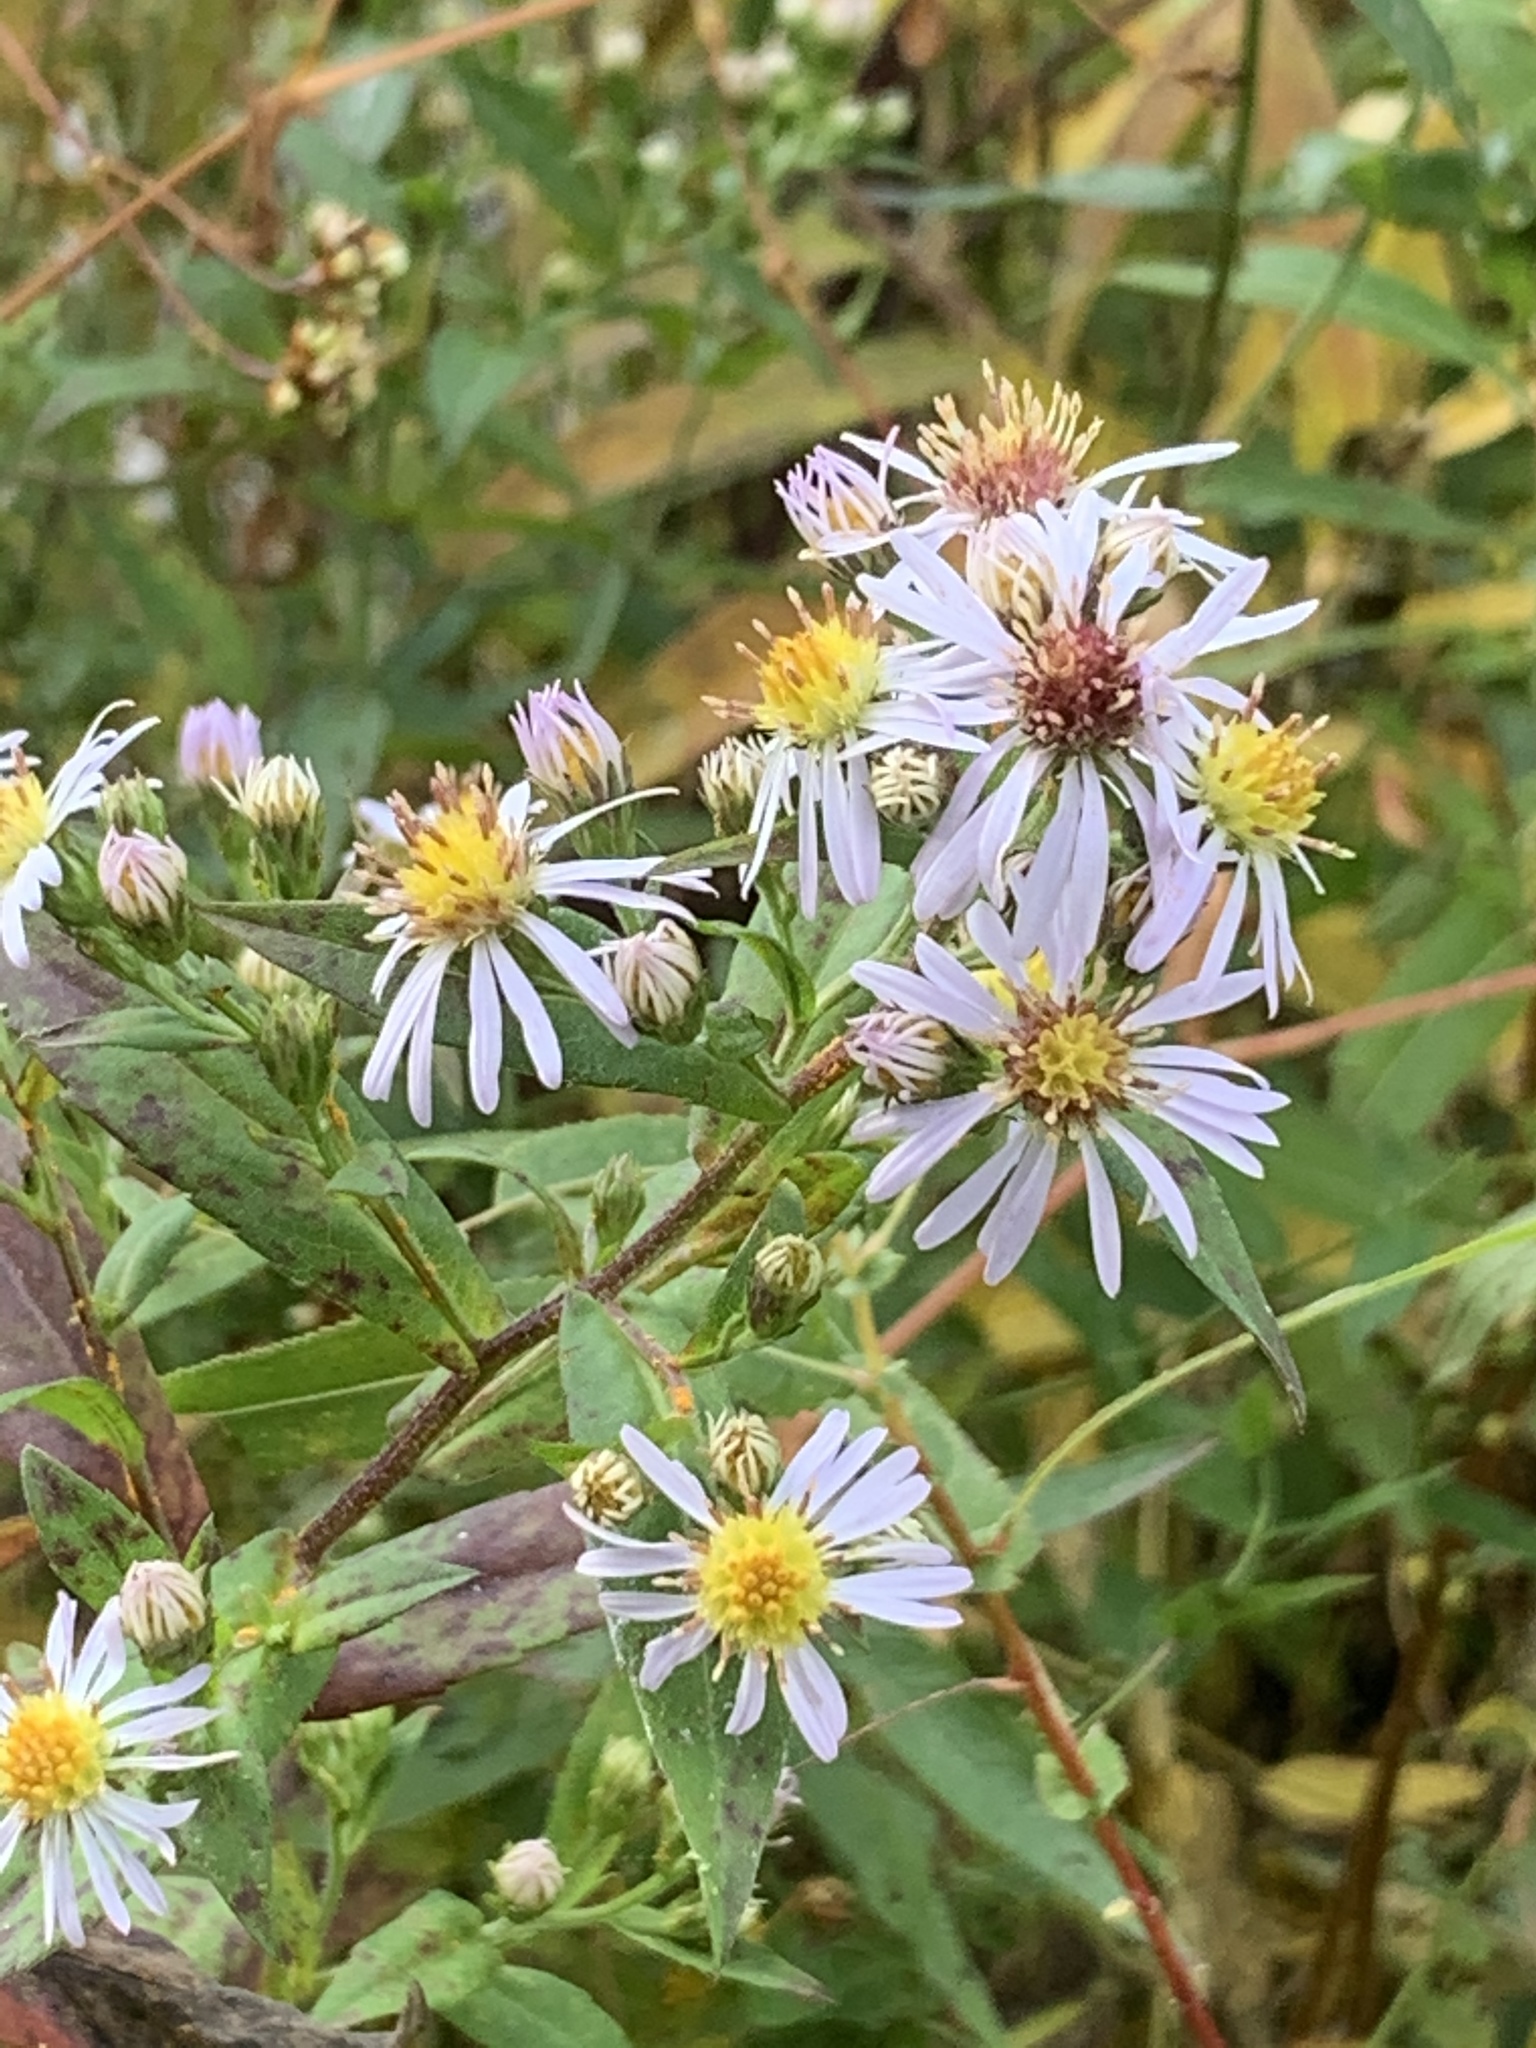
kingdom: Plantae
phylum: Tracheophyta
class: Magnoliopsida
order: Asterales
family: Asteraceae
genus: Symphyotrichum
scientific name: Symphyotrichum puniceum
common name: Bog aster
